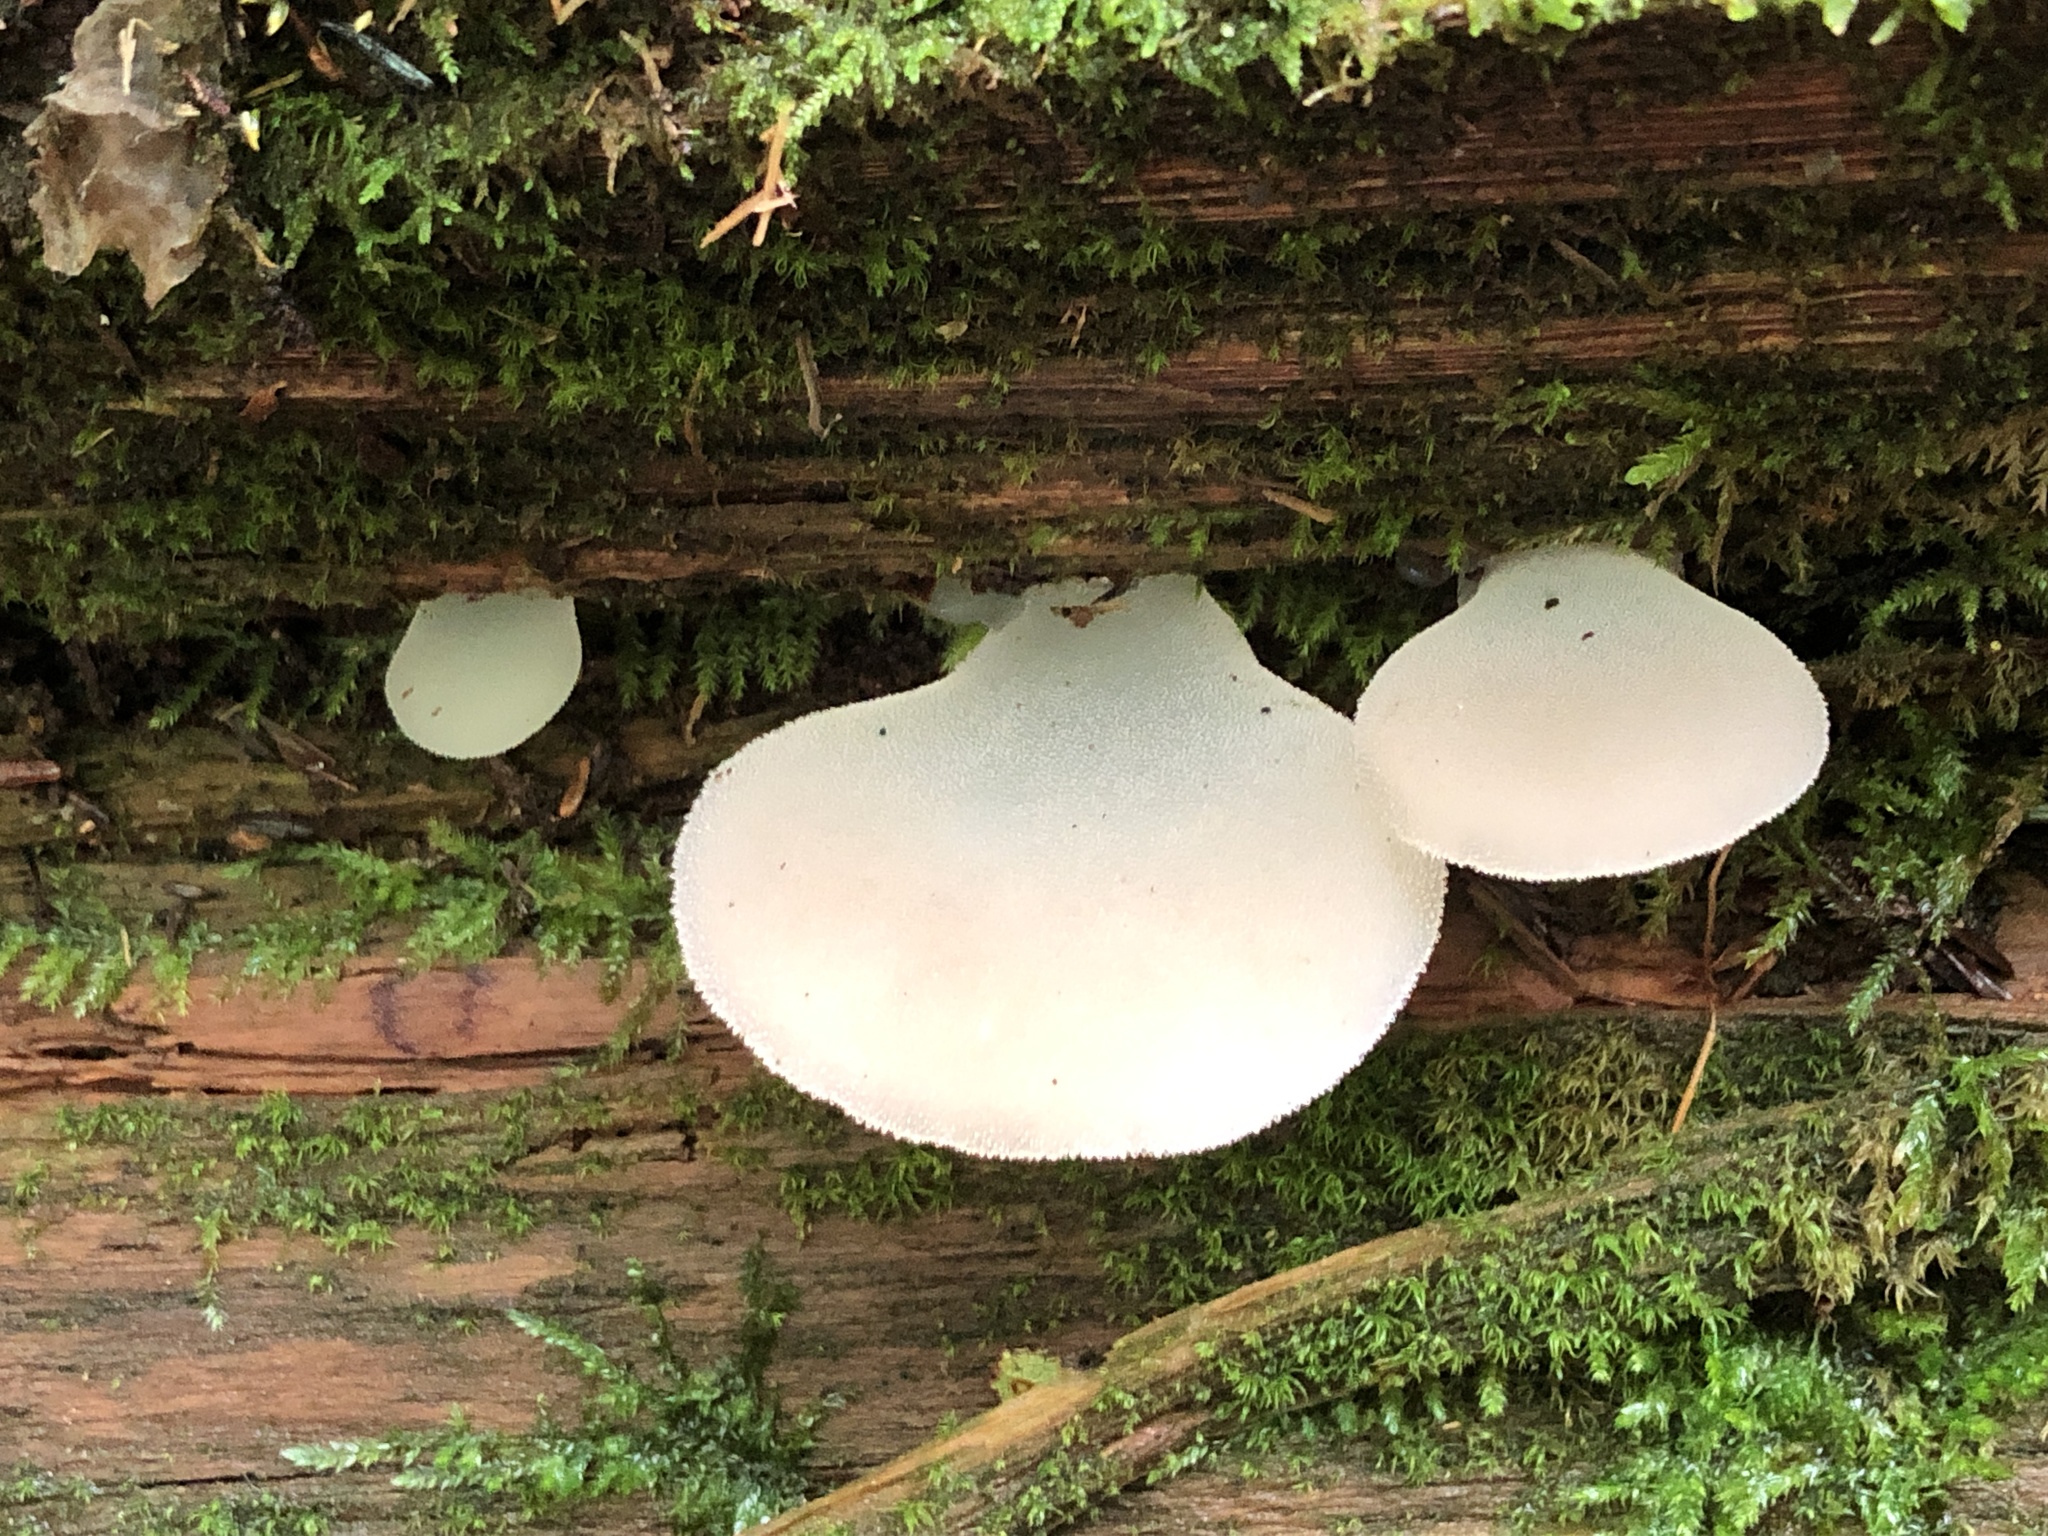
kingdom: Fungi
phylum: Basidiomycota
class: Agaricomycetes
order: Auriculariales
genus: Pseudohydnum
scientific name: Pseudohydnum gelatinosum
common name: Jelly tongue
